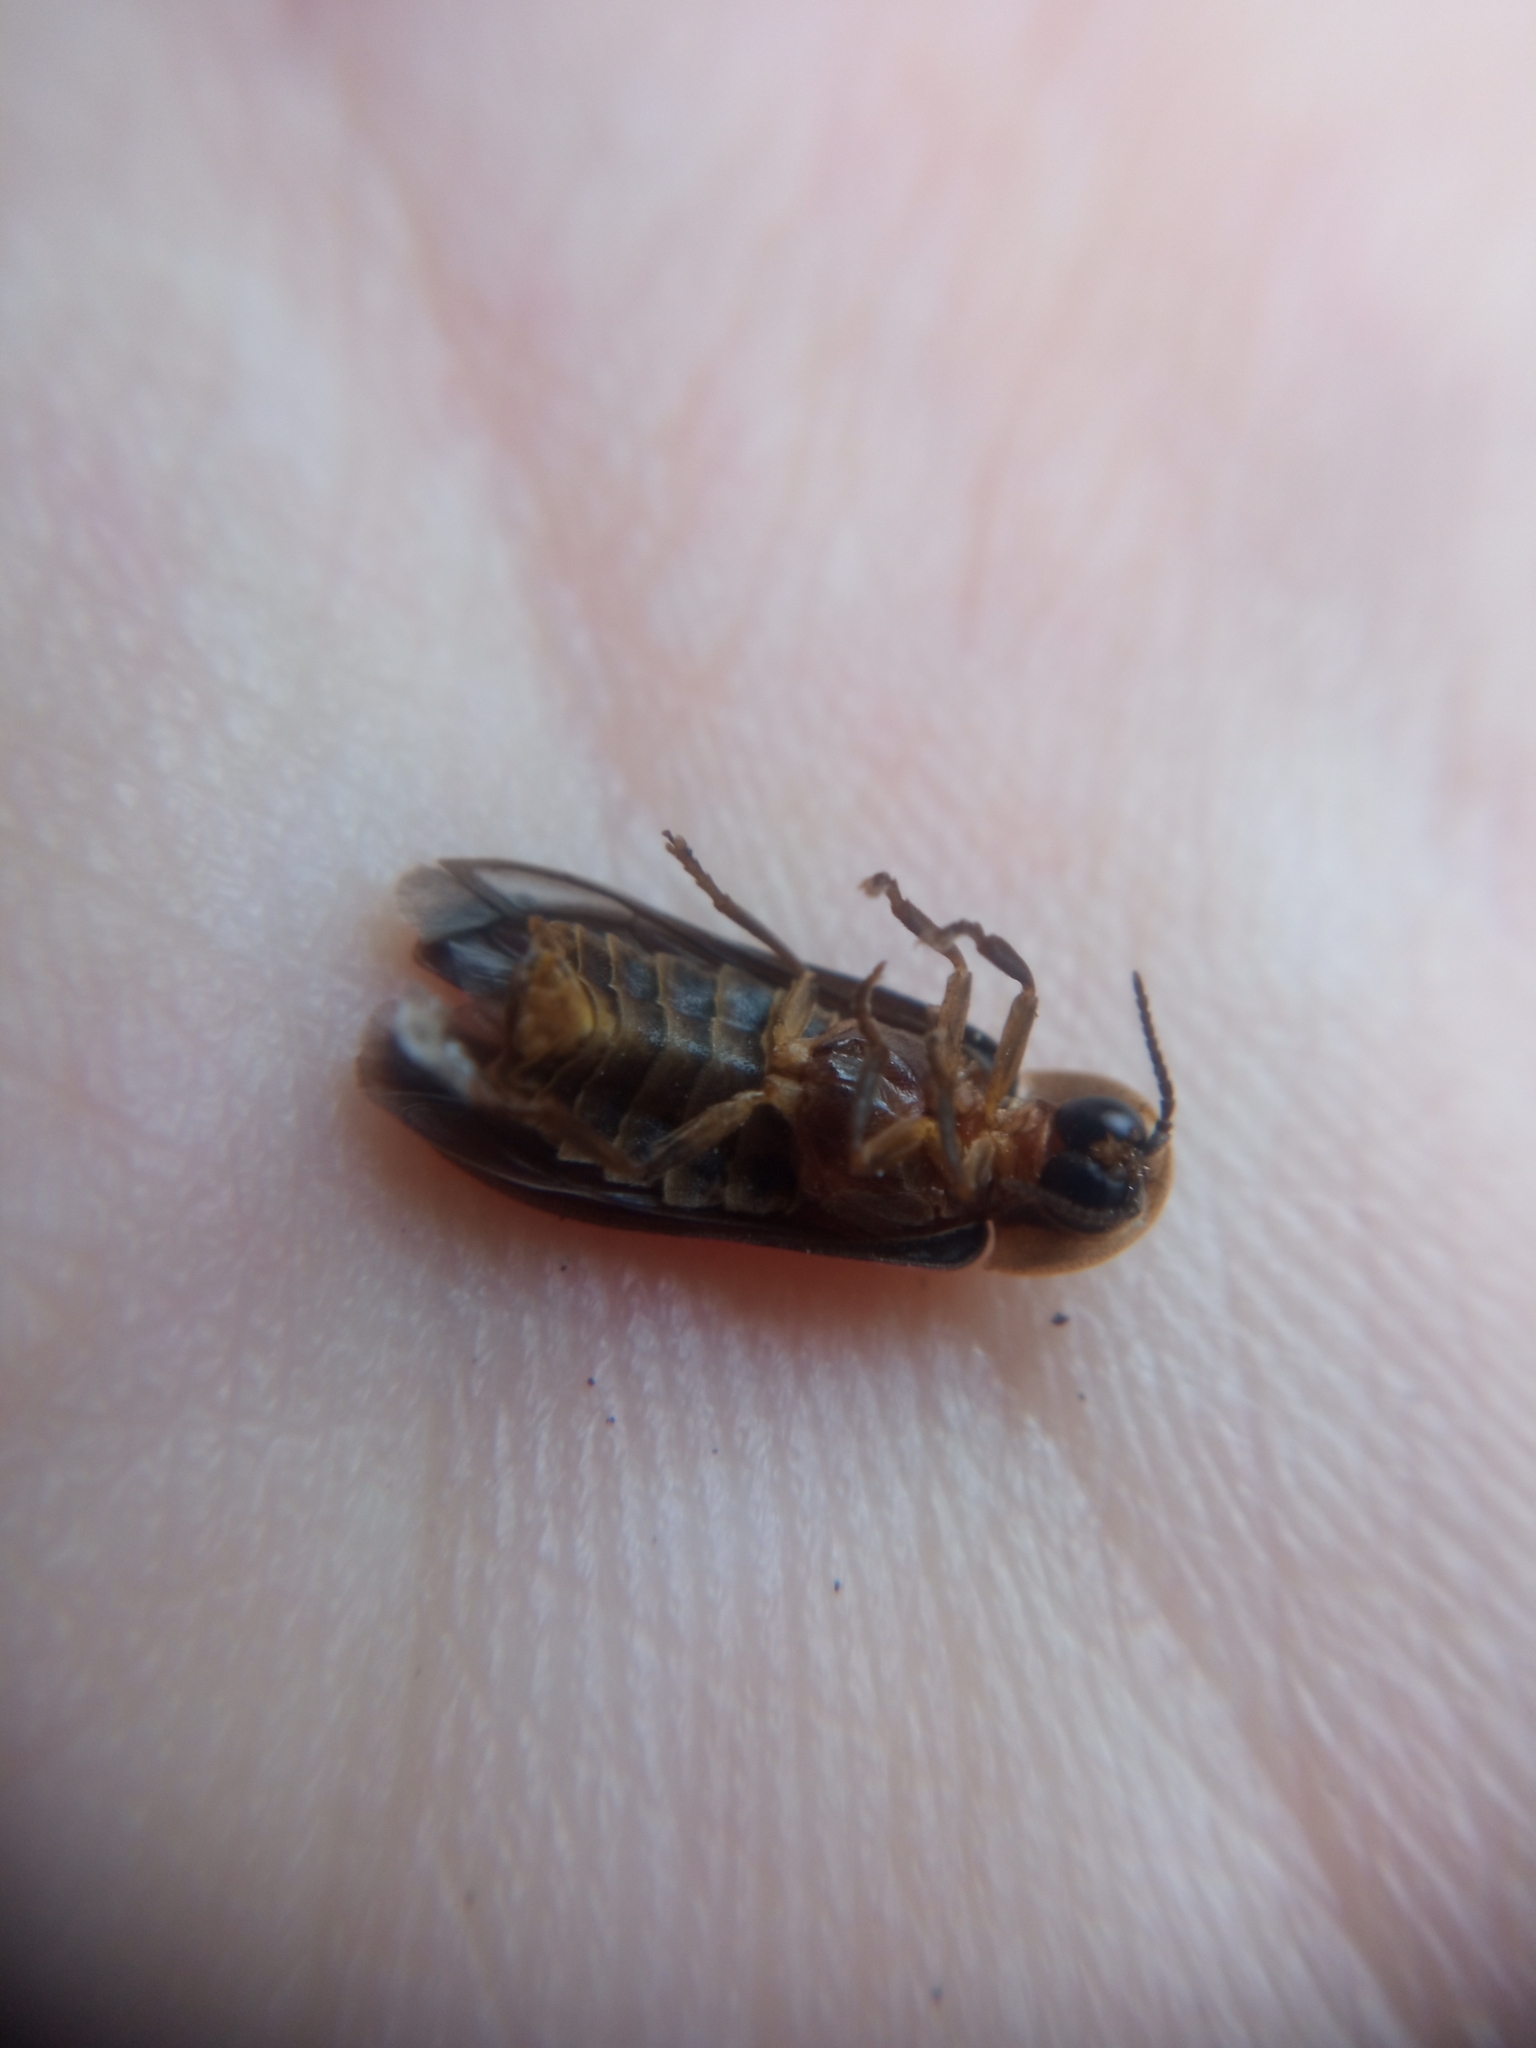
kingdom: Animalia
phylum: Arthropoda
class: Insecta
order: Coleoptera
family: Lampyridae
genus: Lampyris
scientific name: Lampyris noctiluca
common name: Glow-worm
